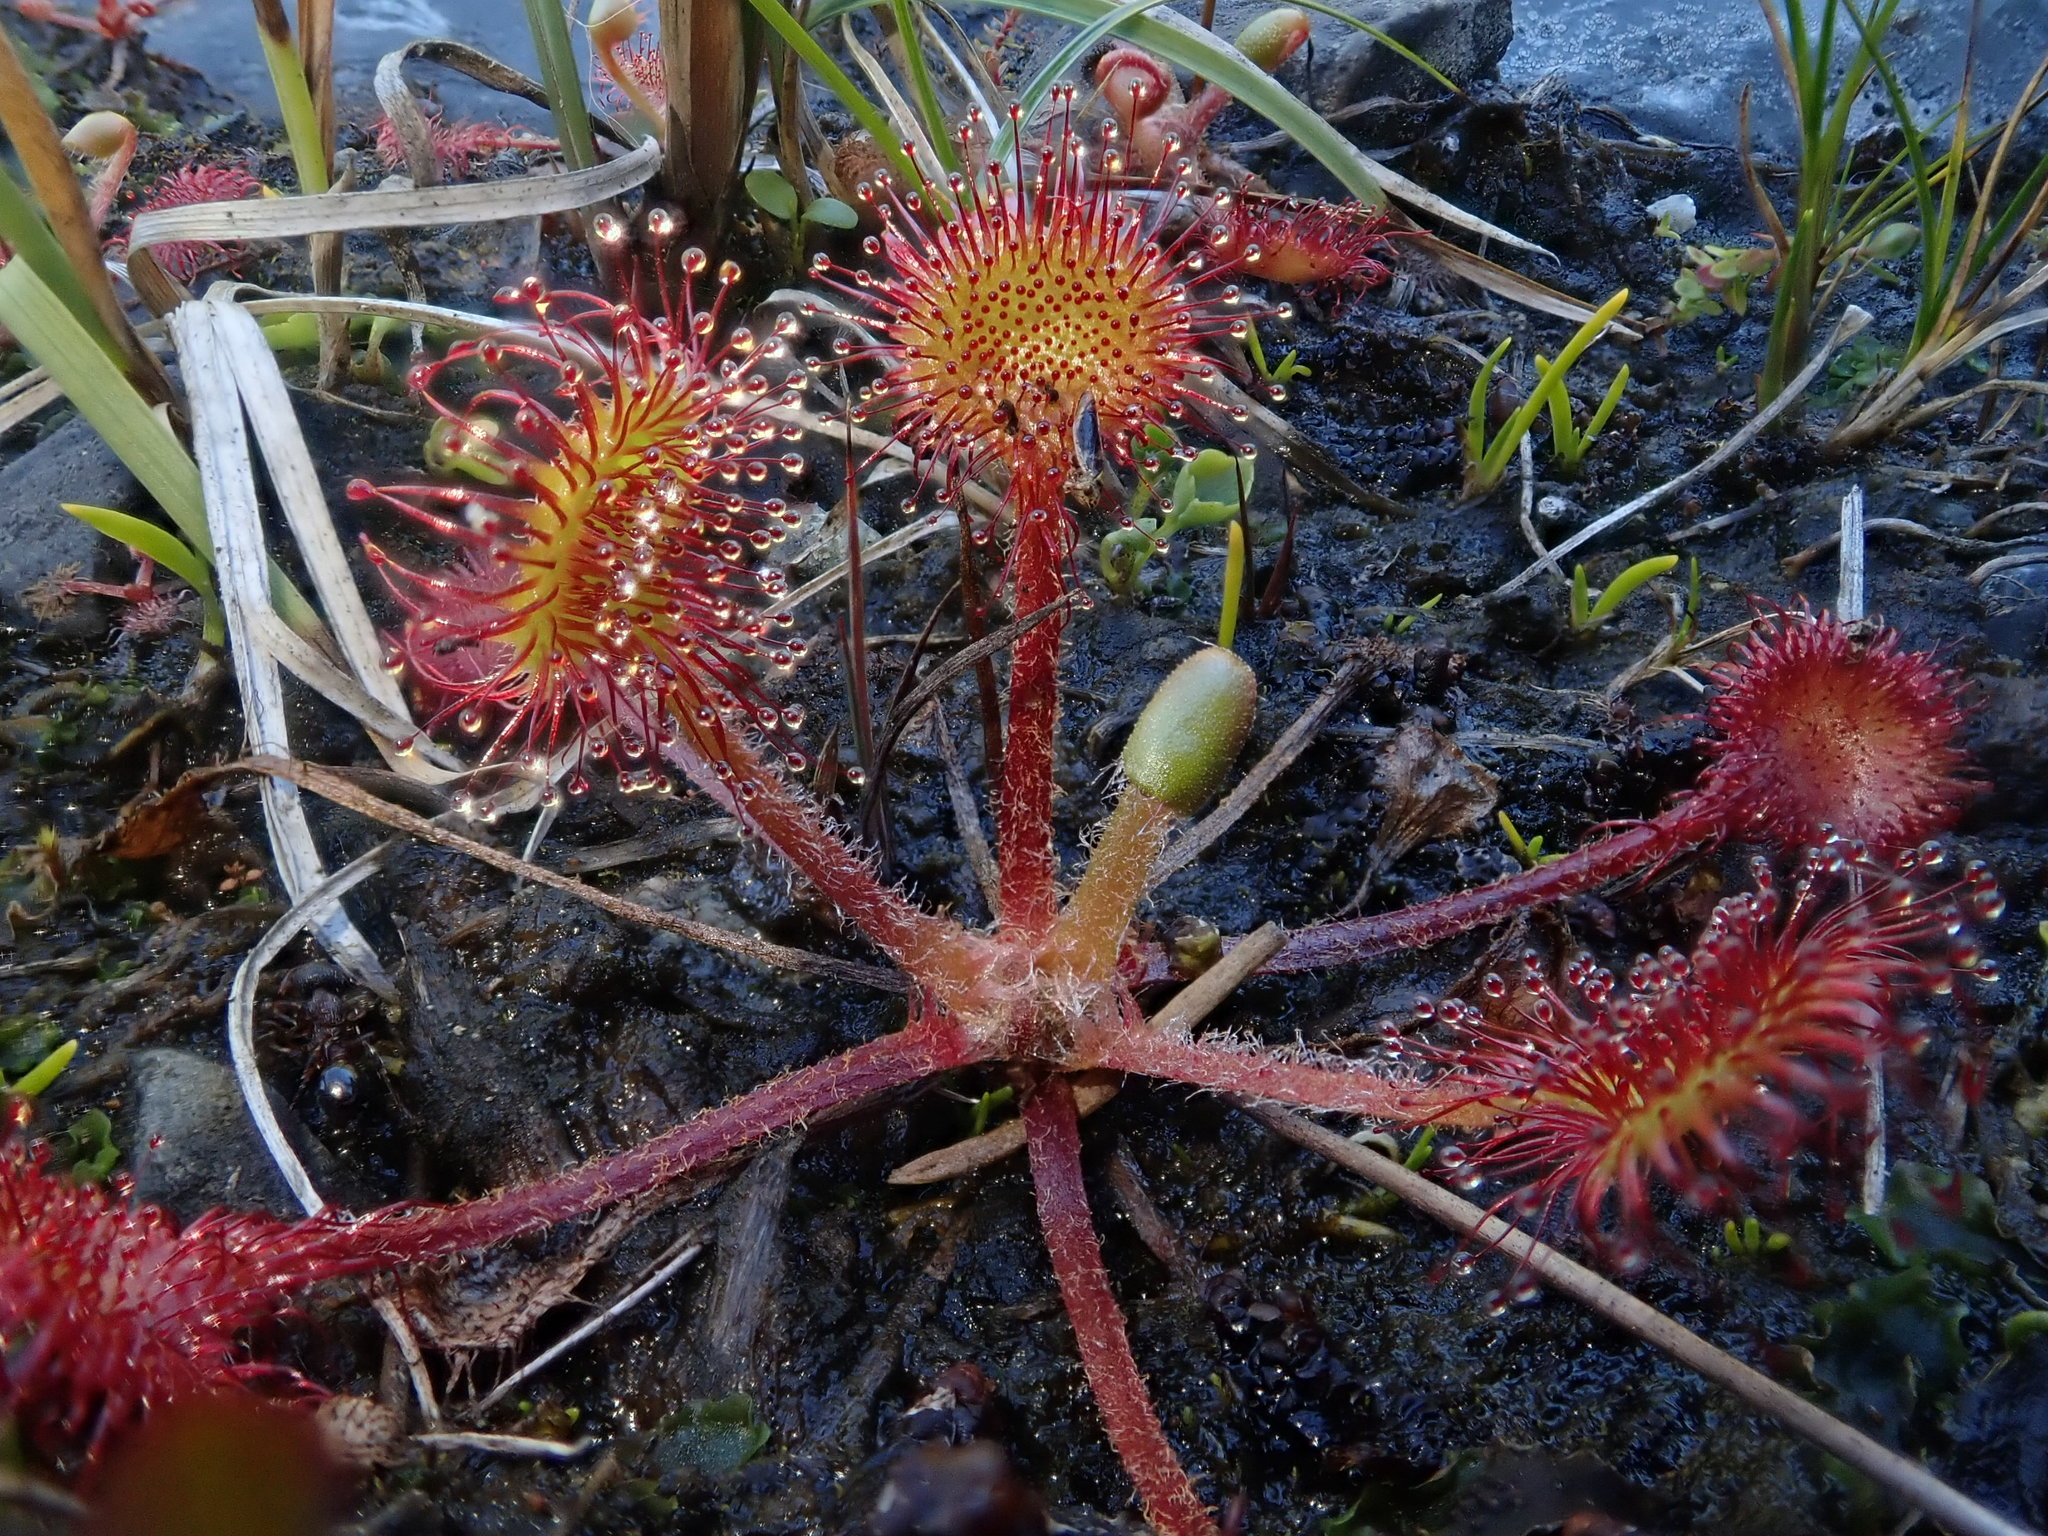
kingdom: Plantae
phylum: Tracheophyta
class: Magnoliopsida
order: Caryophyllales
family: Droseraceae
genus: Drosera
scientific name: Drosera rotundifolia
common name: Round-leaved sundew
